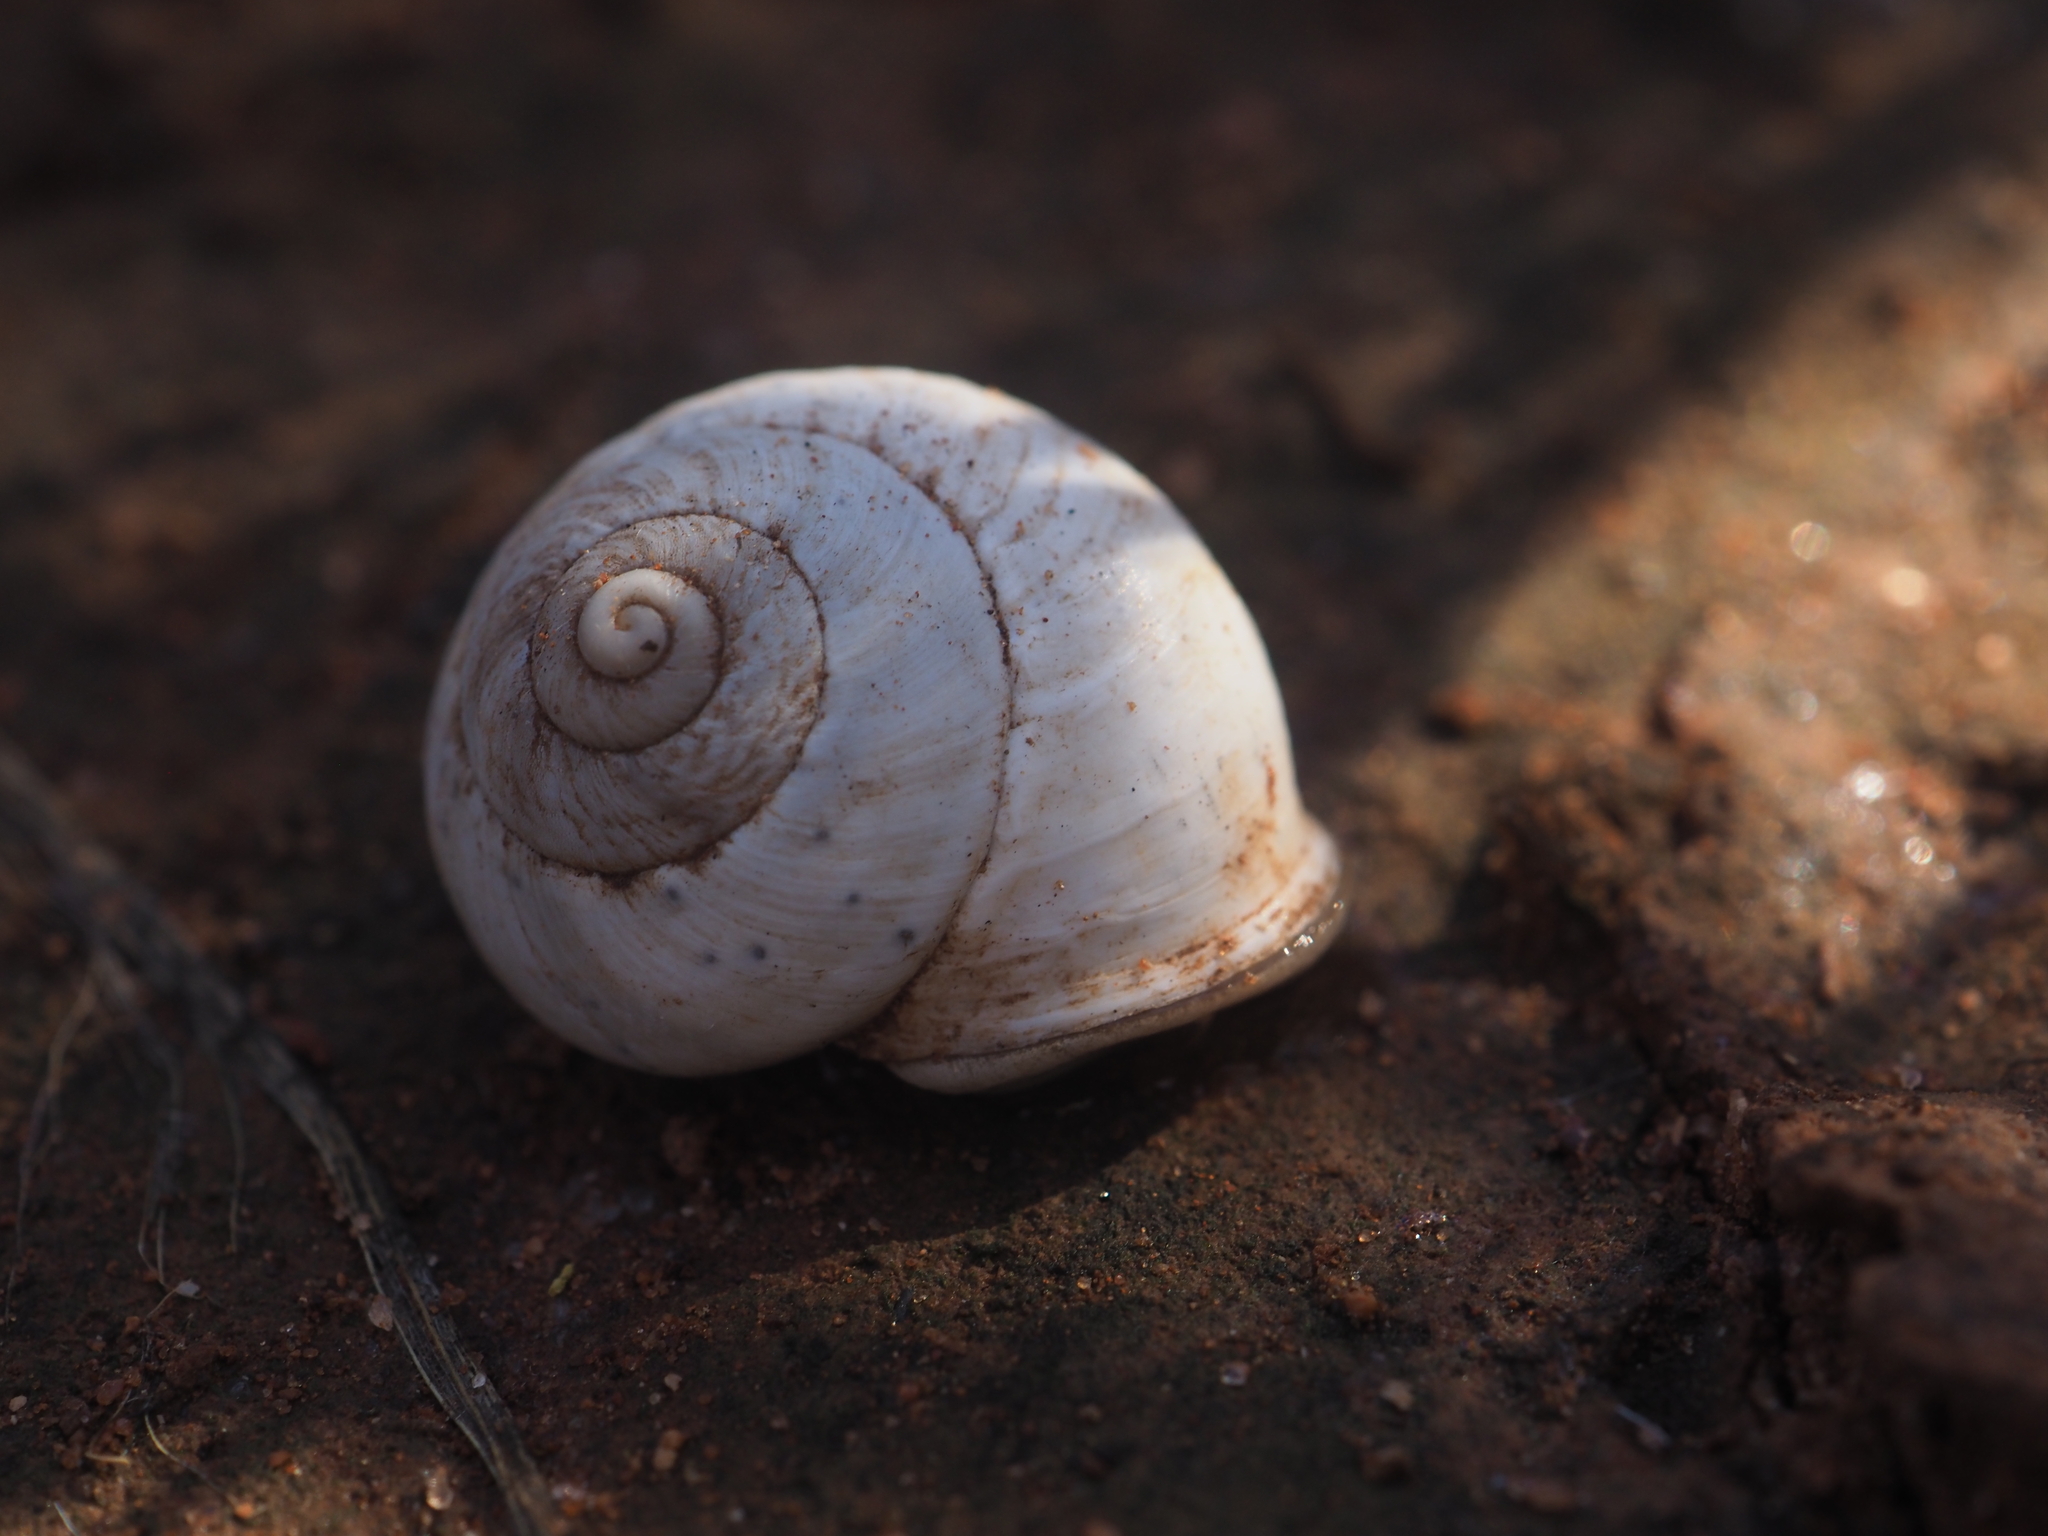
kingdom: Animalia
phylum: Mollusca
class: Gastropoda
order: Stylommatophora
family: Camaenidae
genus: Plectorhagada
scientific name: Plectorhagada scolythra
